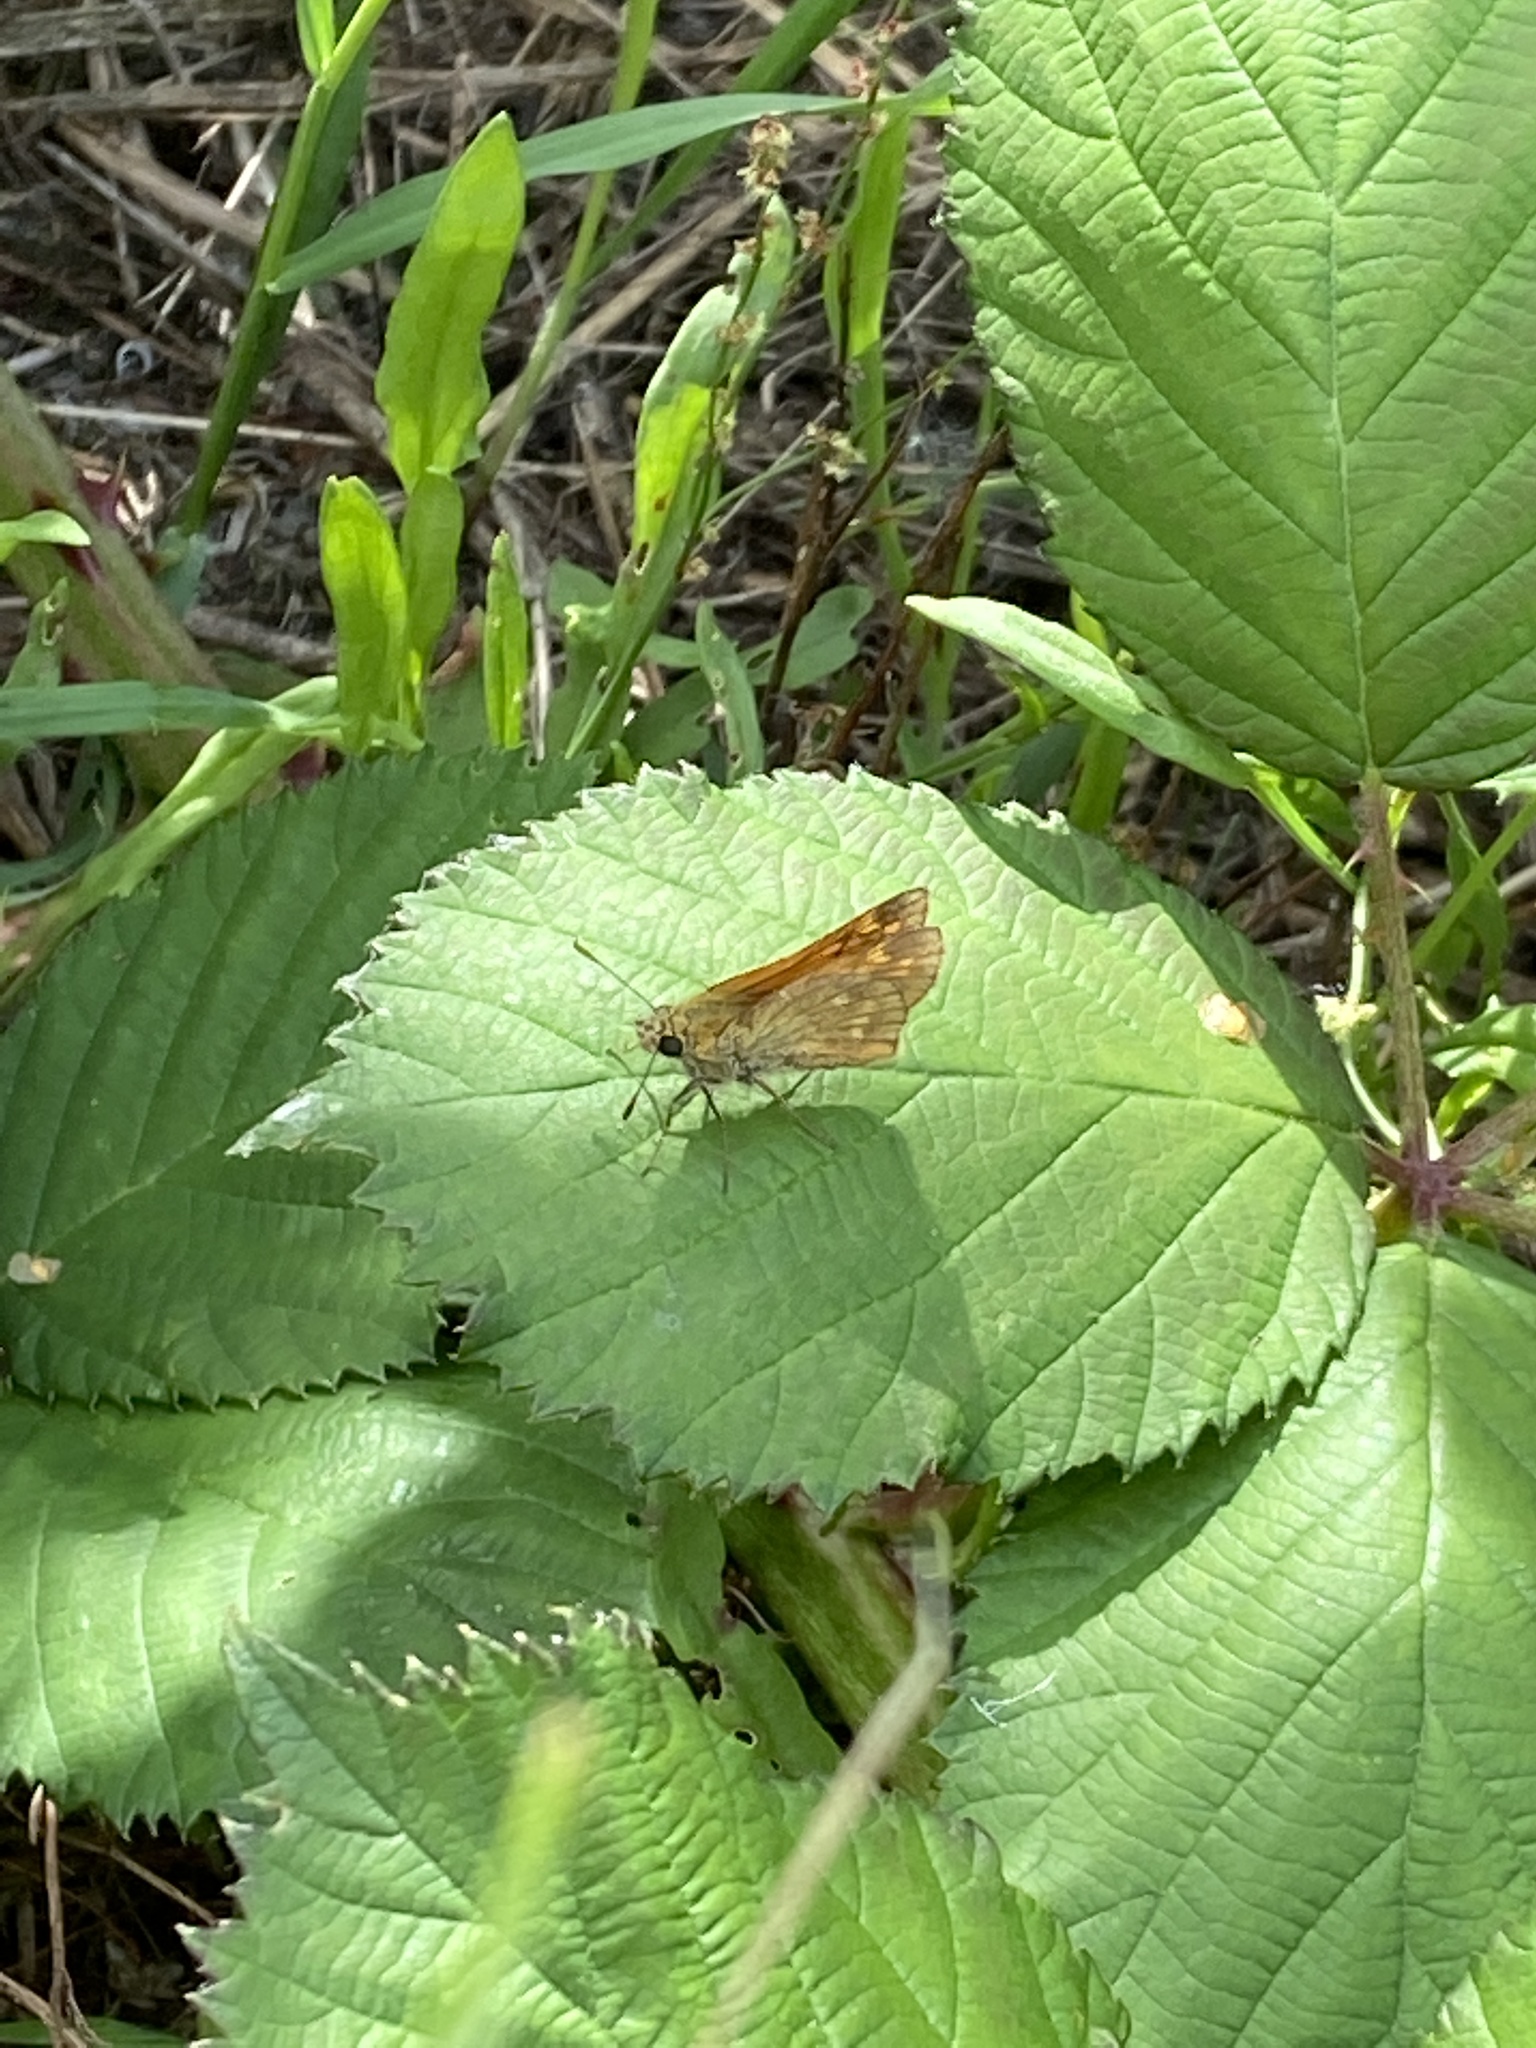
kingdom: Animalia
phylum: Arthropoda
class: Insecta
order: Lepidoptera
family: Hesperiidae
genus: Ochlodes
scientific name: Ochlodes venata
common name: Large skipper
